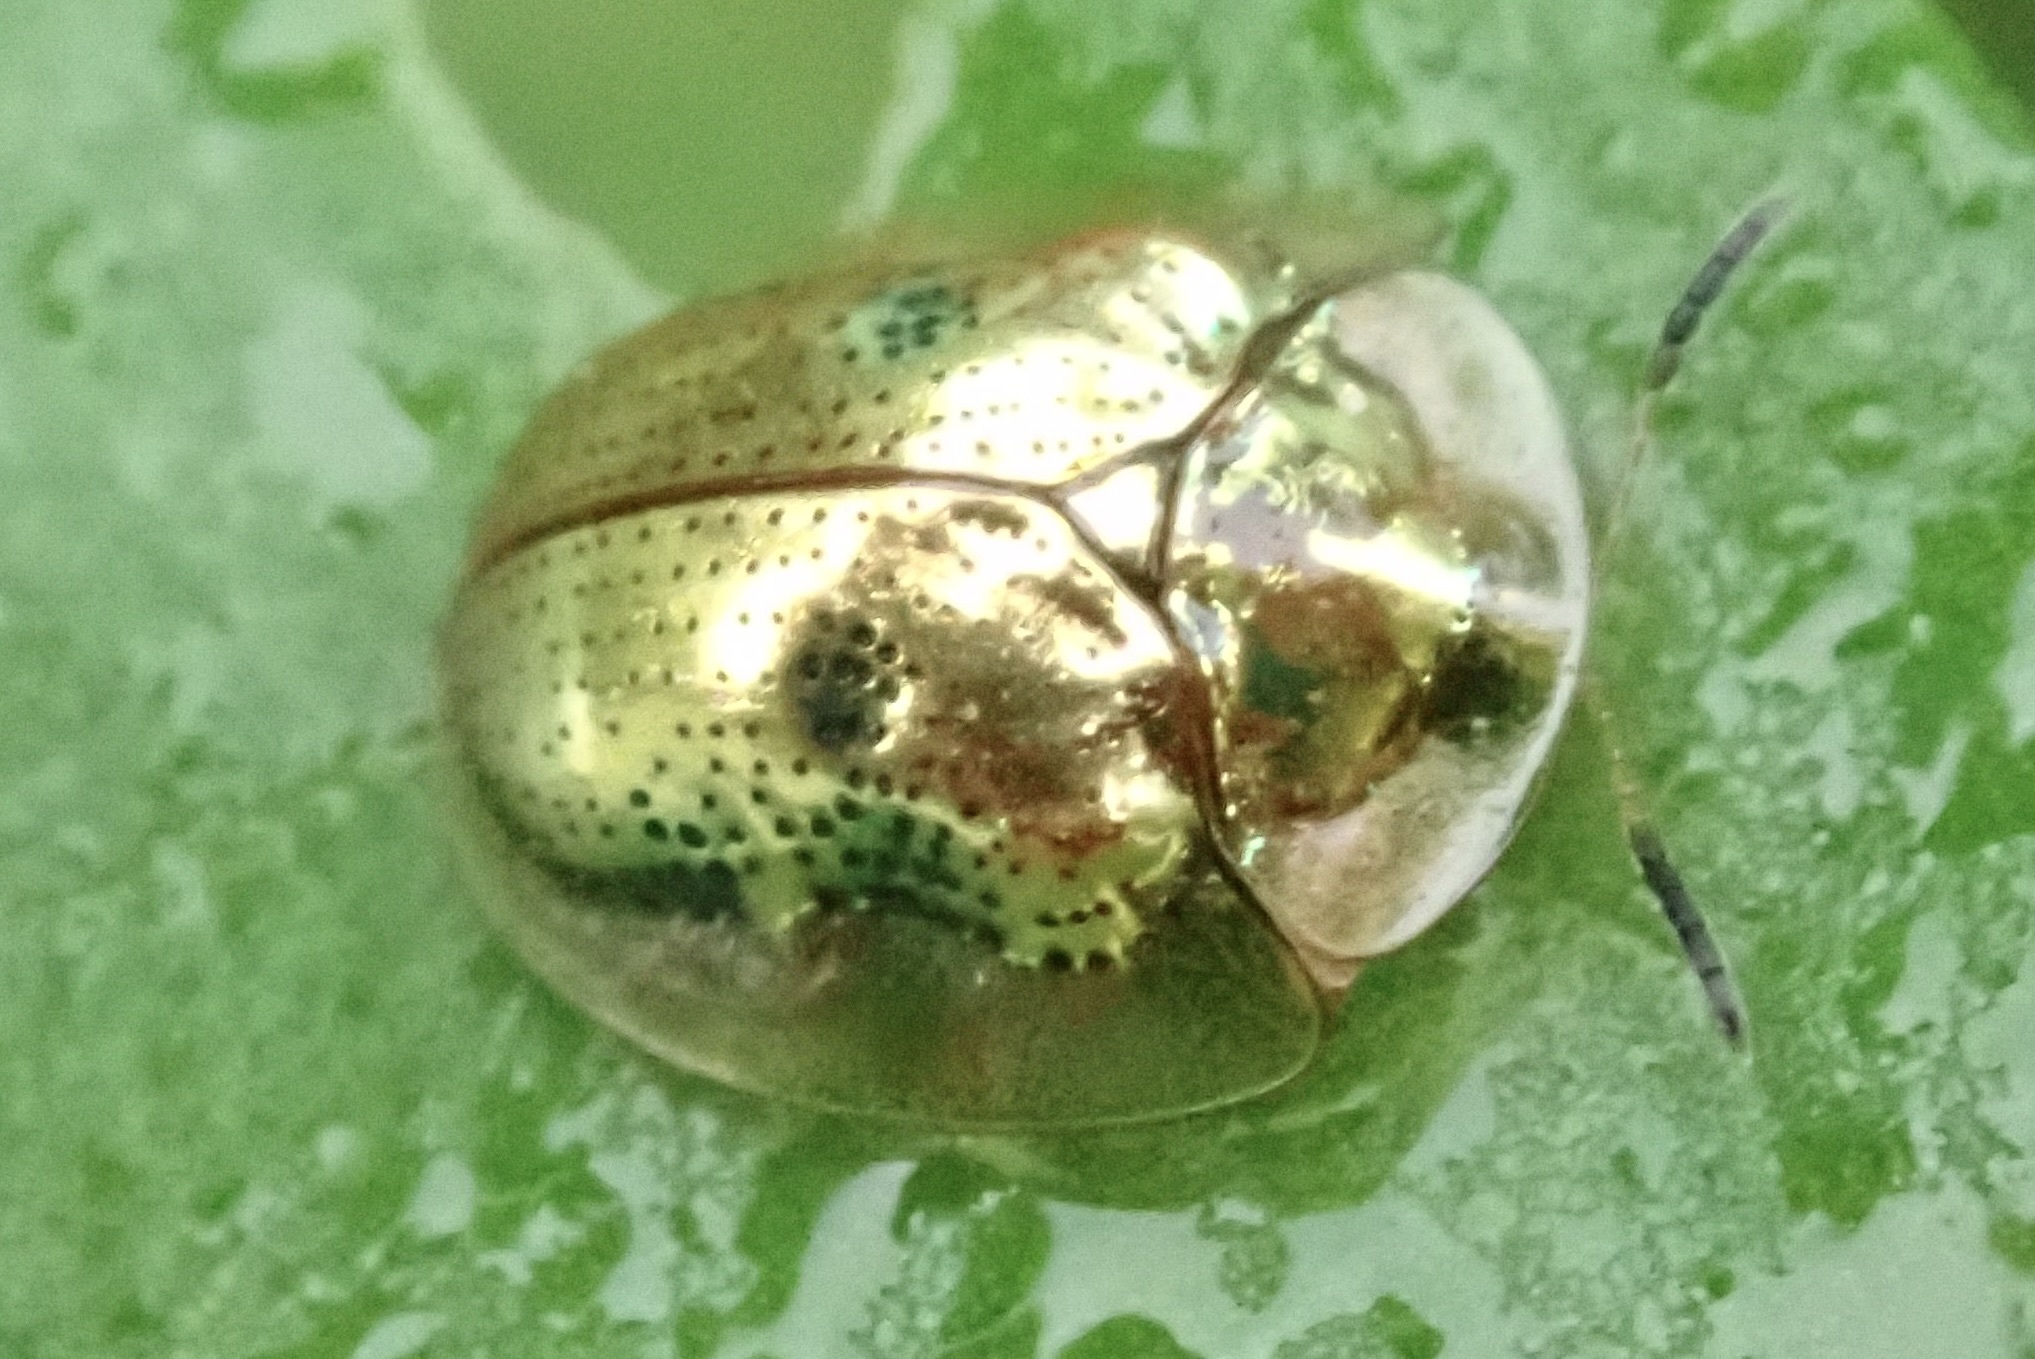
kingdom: Animalia
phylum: Arthropoda
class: Insecta
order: Coleoptera
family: Chrysomelidae
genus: Charidotella
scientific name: Charidotella sexpunctata
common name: Golden tortoise beetle
